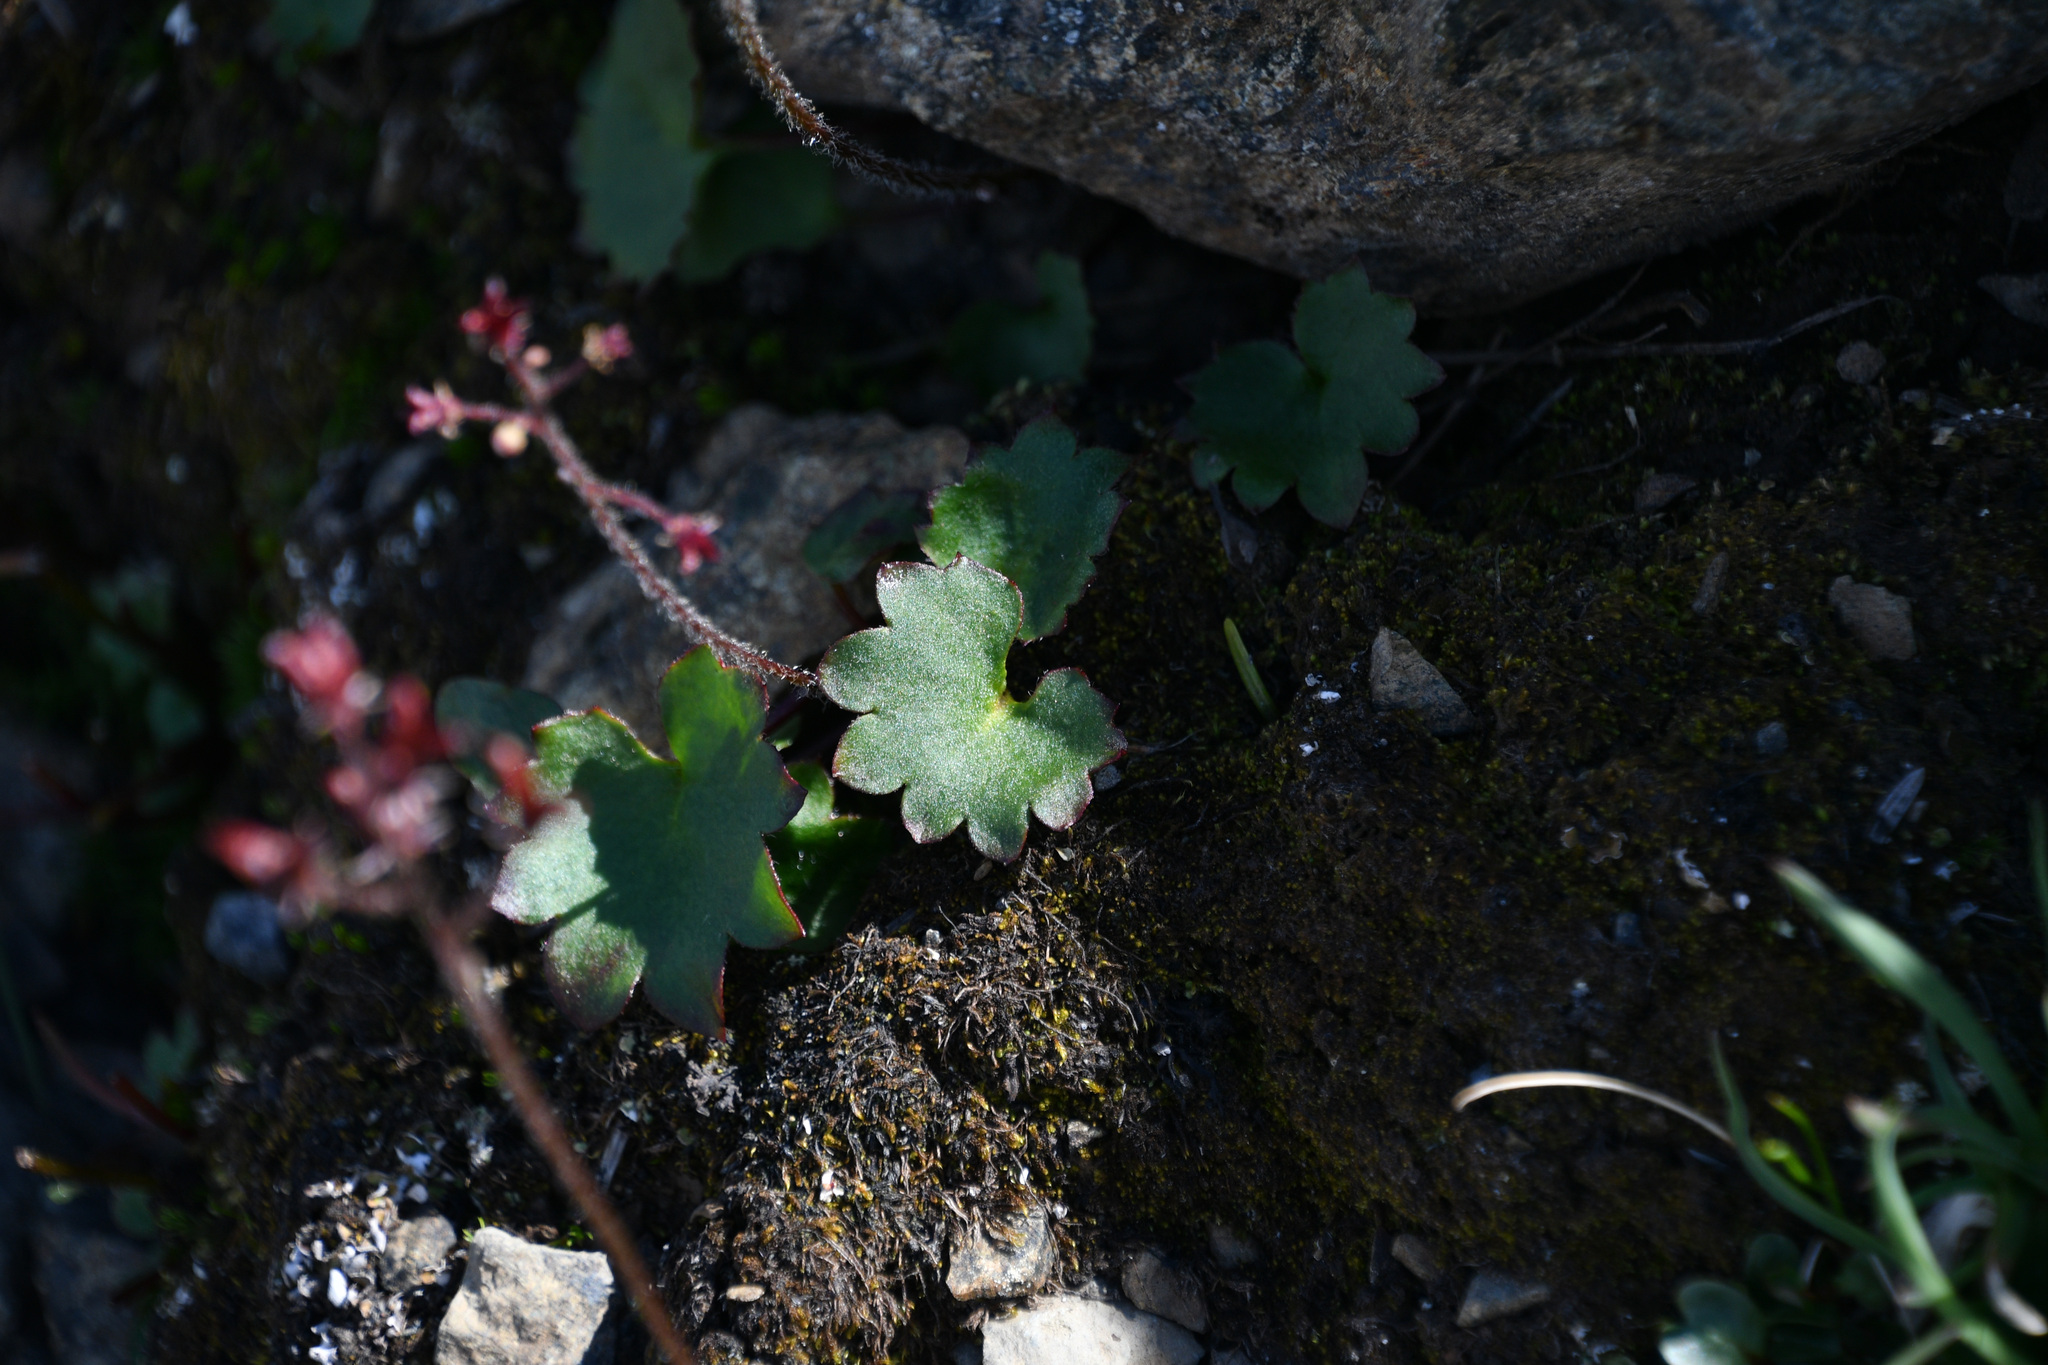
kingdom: Plantae
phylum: Tracheophyta
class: Magnoliopsida
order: Saxifragales
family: Saxifragaceae
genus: Micranthes
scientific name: Micranthes nelsoniana
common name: Nelson's saxifrage
